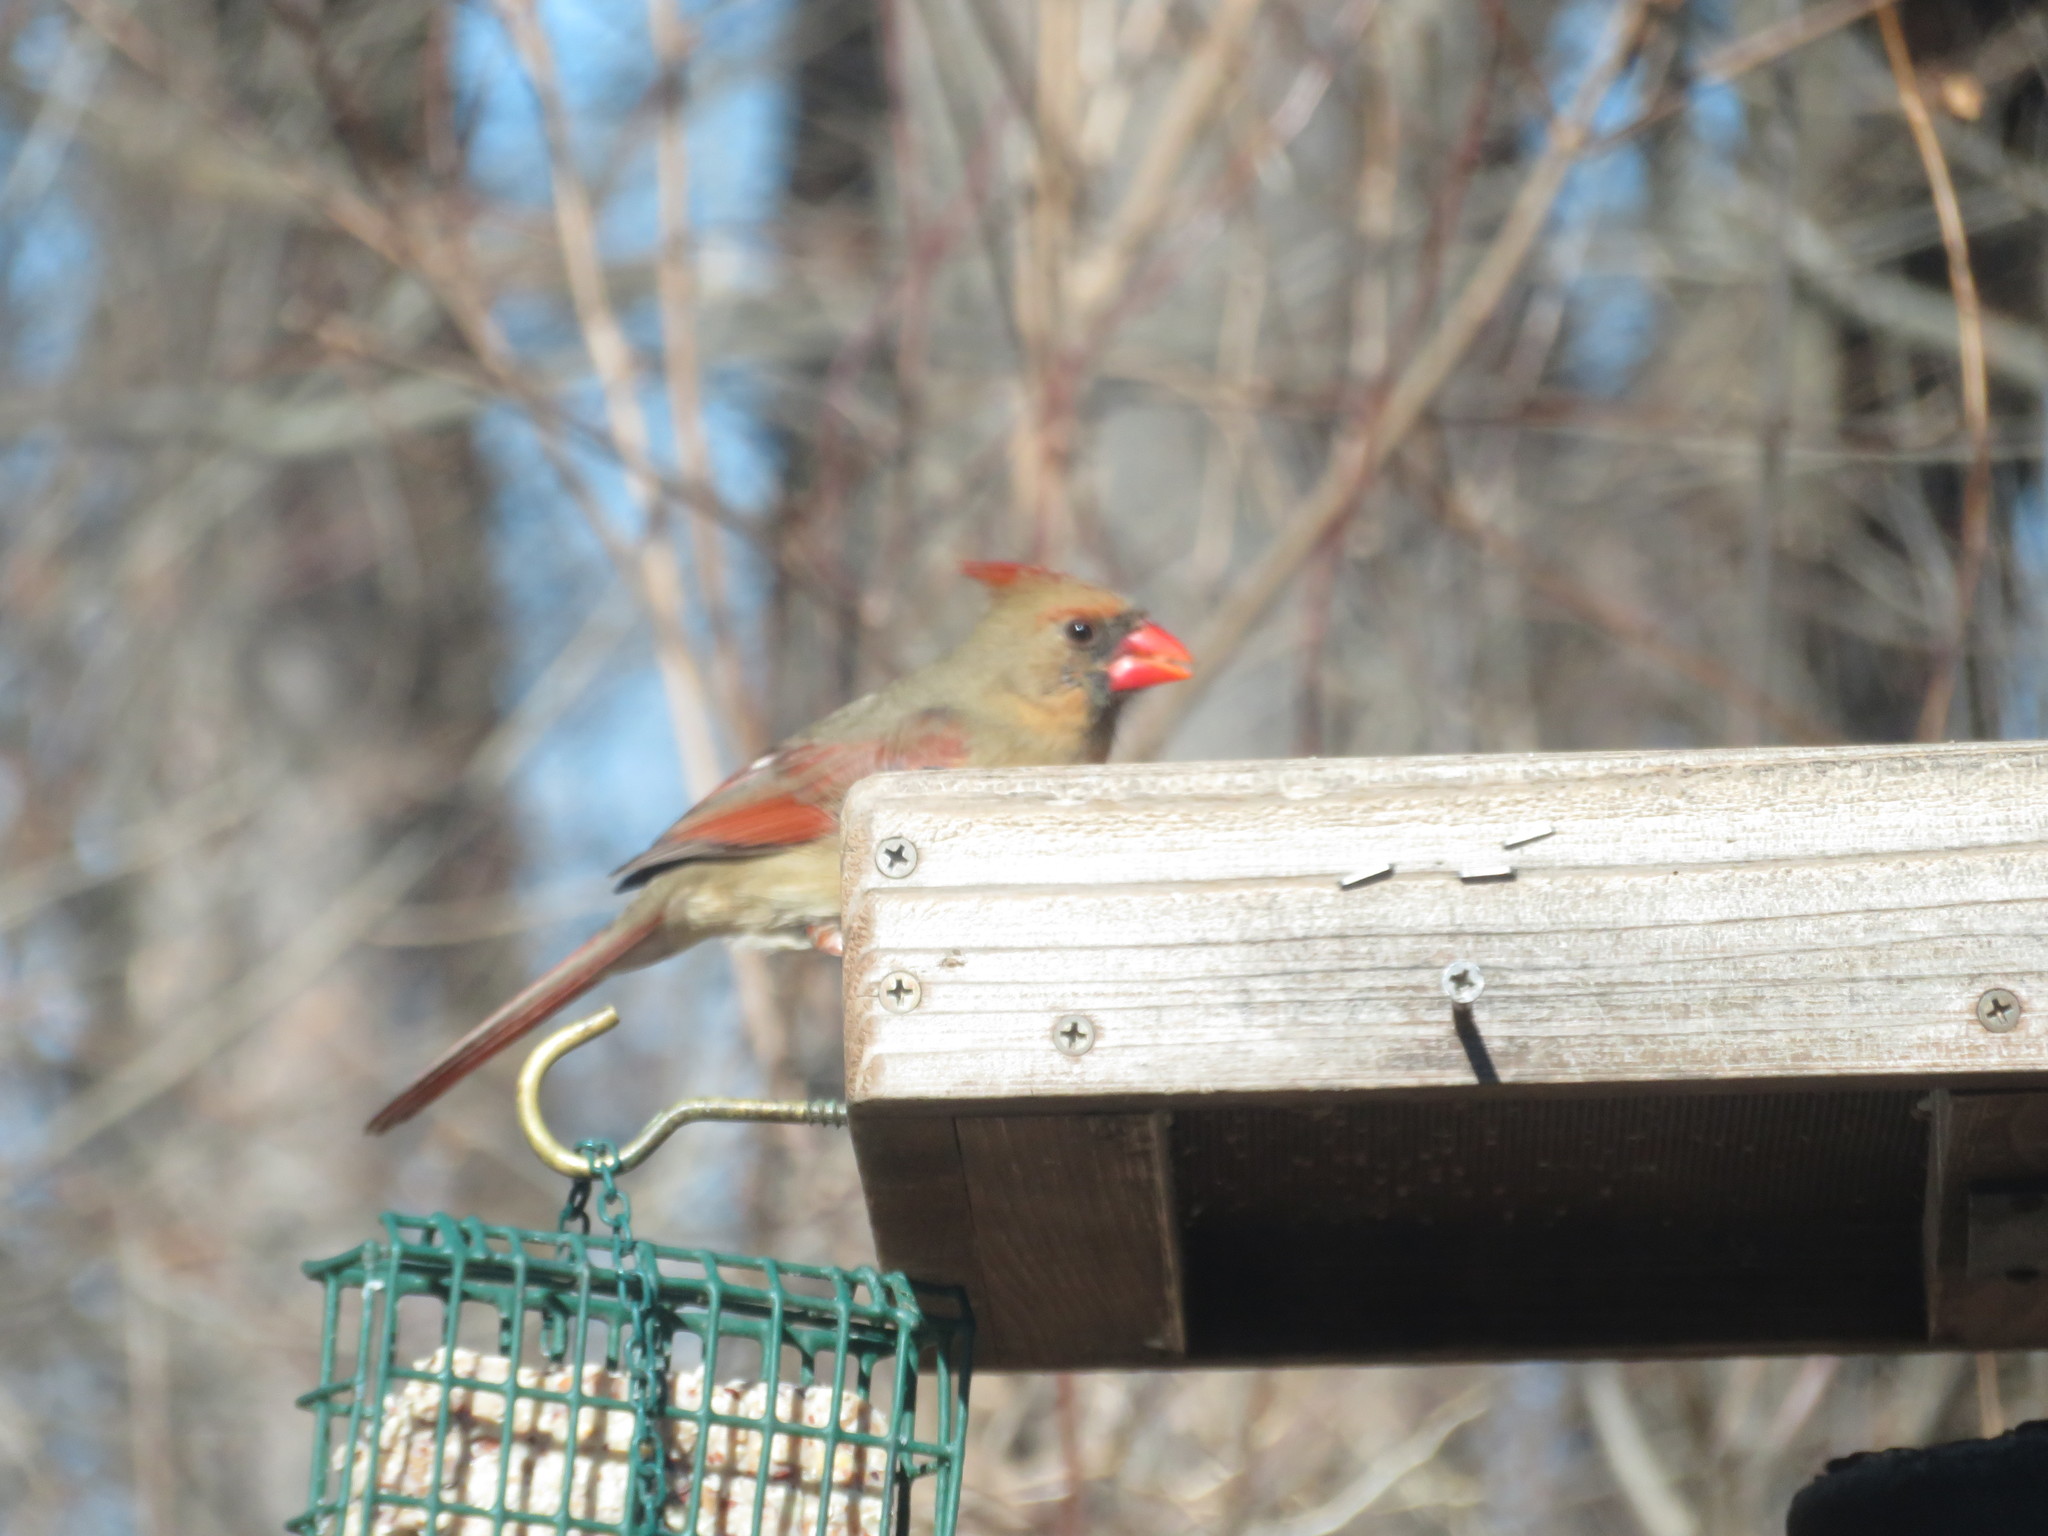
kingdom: Animalia
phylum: Chordata
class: Aves
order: Passeriformes
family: Cardinalidae
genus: Cardinalis
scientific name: Cardinalis cardinalis
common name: Northern cardinal
